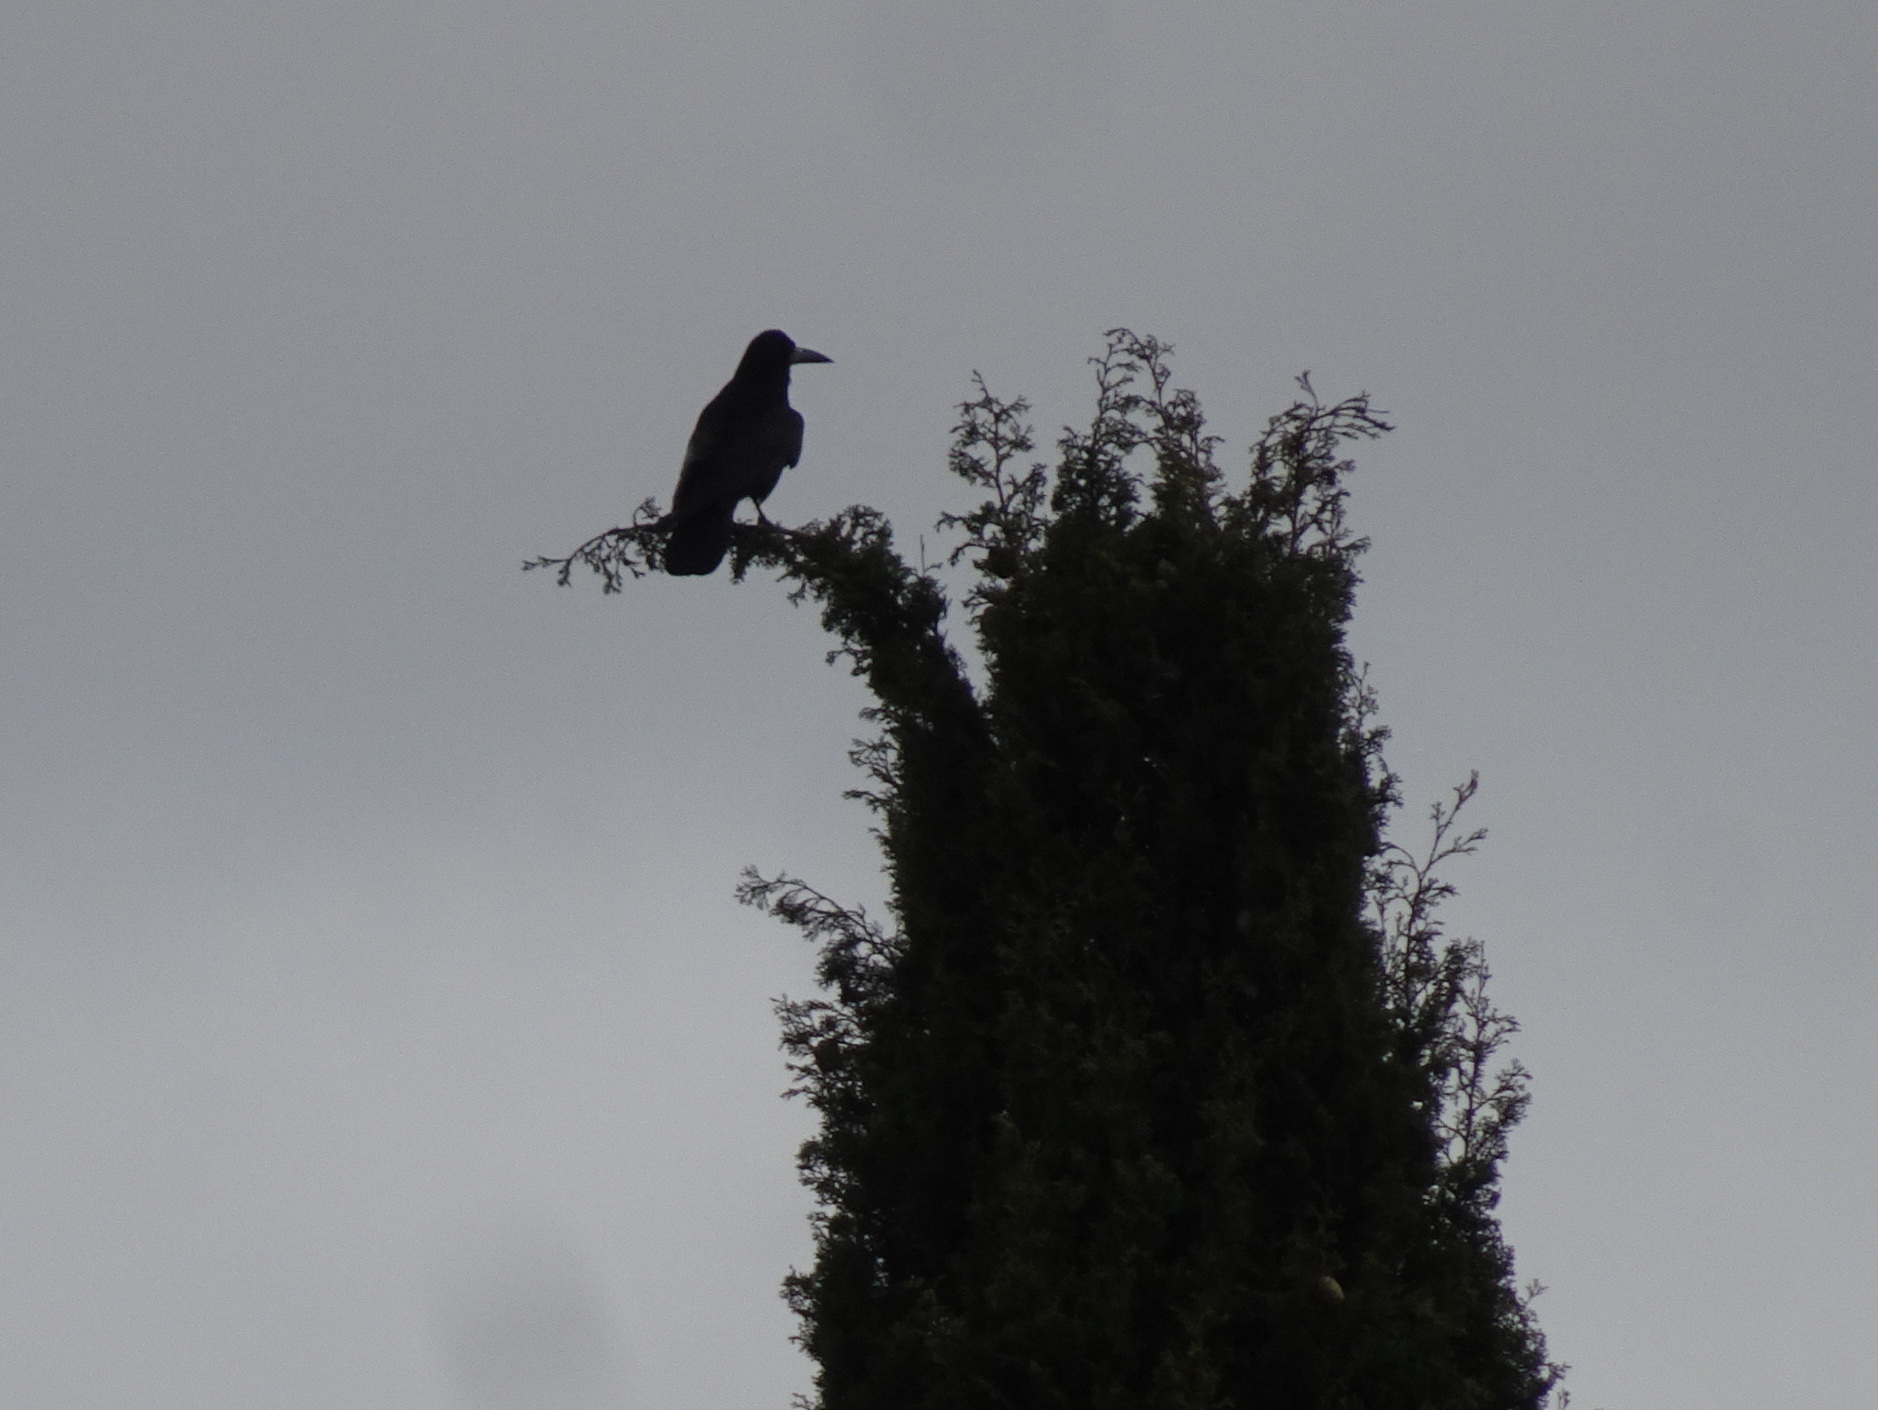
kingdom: Animalia
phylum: Chordata
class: Aves
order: Passeriformes
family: Corvidae
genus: Corvus
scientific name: Corvus frugilegus
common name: Rook
